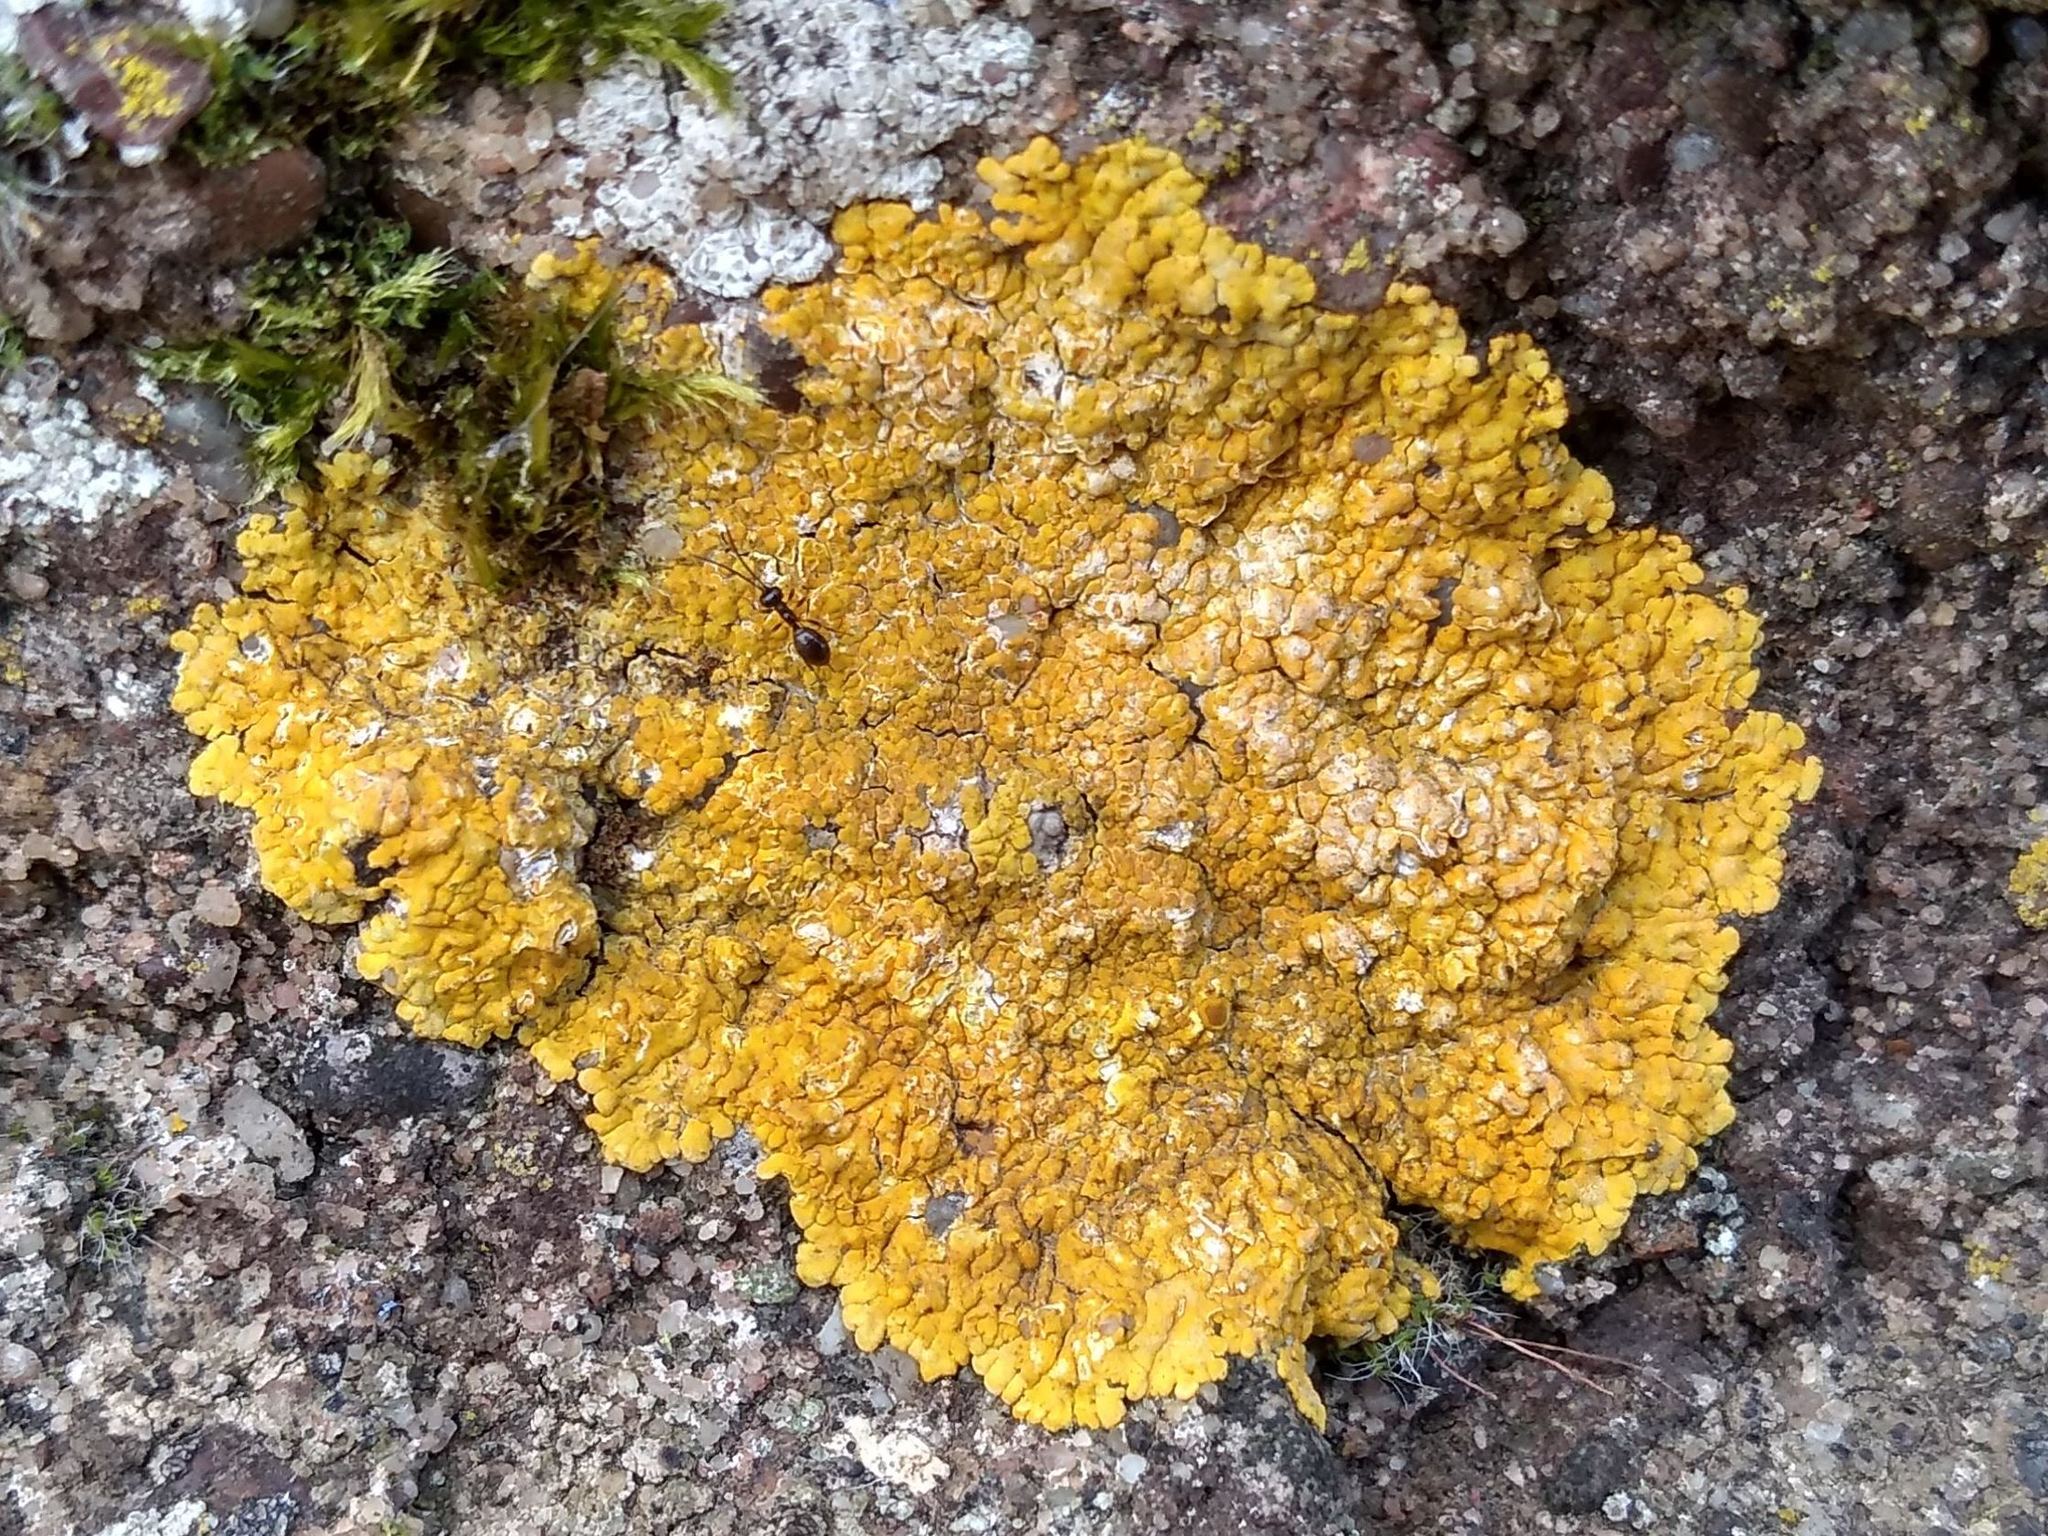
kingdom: Fungi
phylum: Ascomycota
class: Lecanoromycetes
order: Teloschistales
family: Teloschistaceae
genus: Variospora
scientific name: Variospora flavescens
